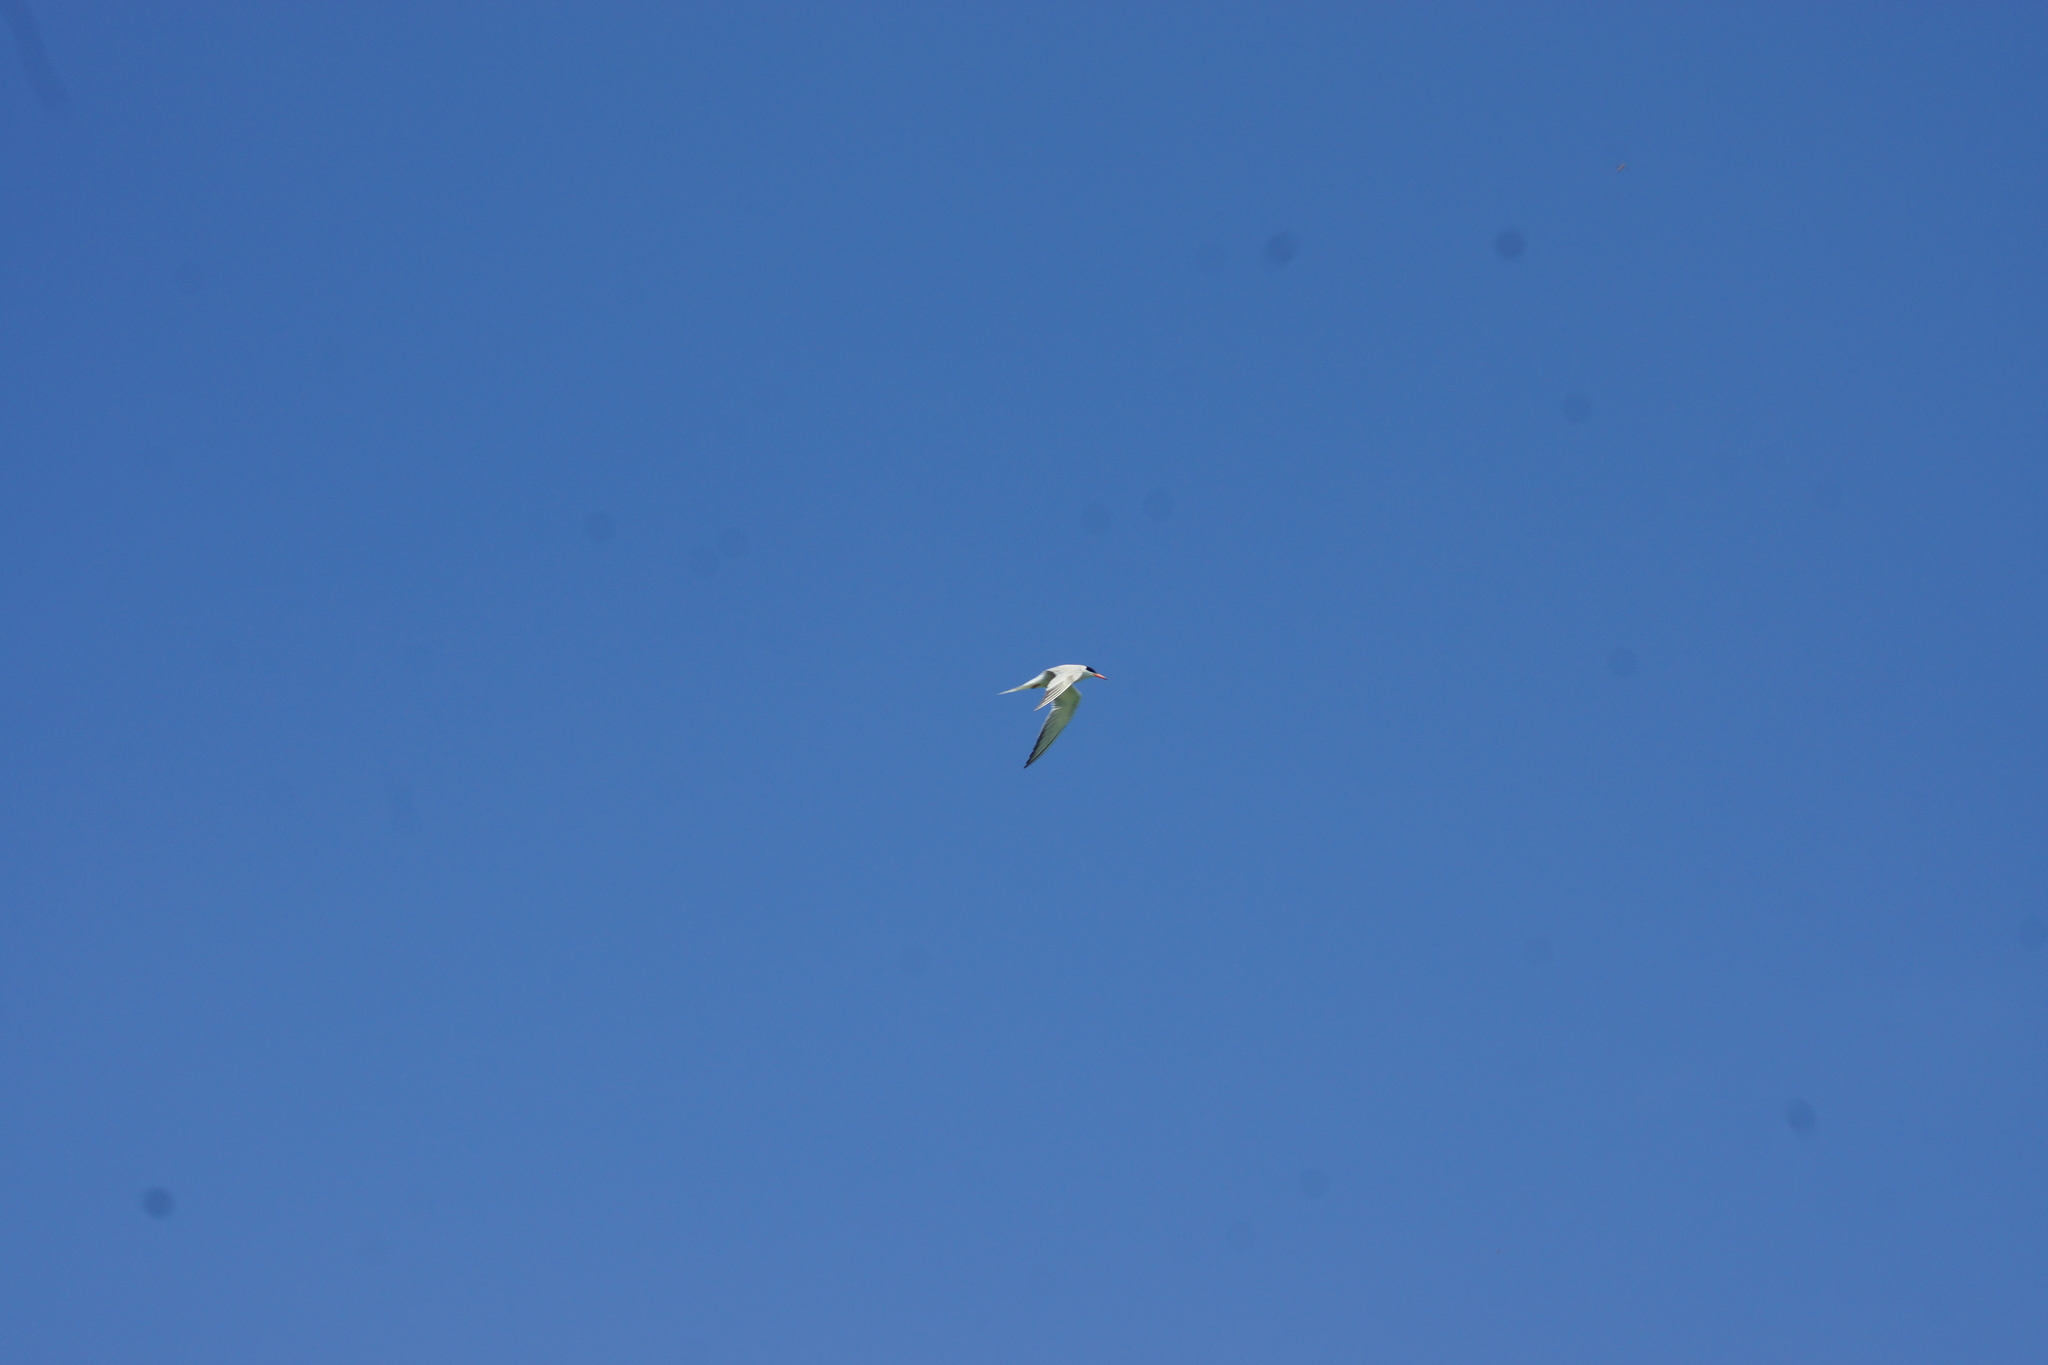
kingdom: Animalia
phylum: Chordata
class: Aves
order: Charadriiformes
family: Laridae
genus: Sterna
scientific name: Sterna hirundo
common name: Common tern
